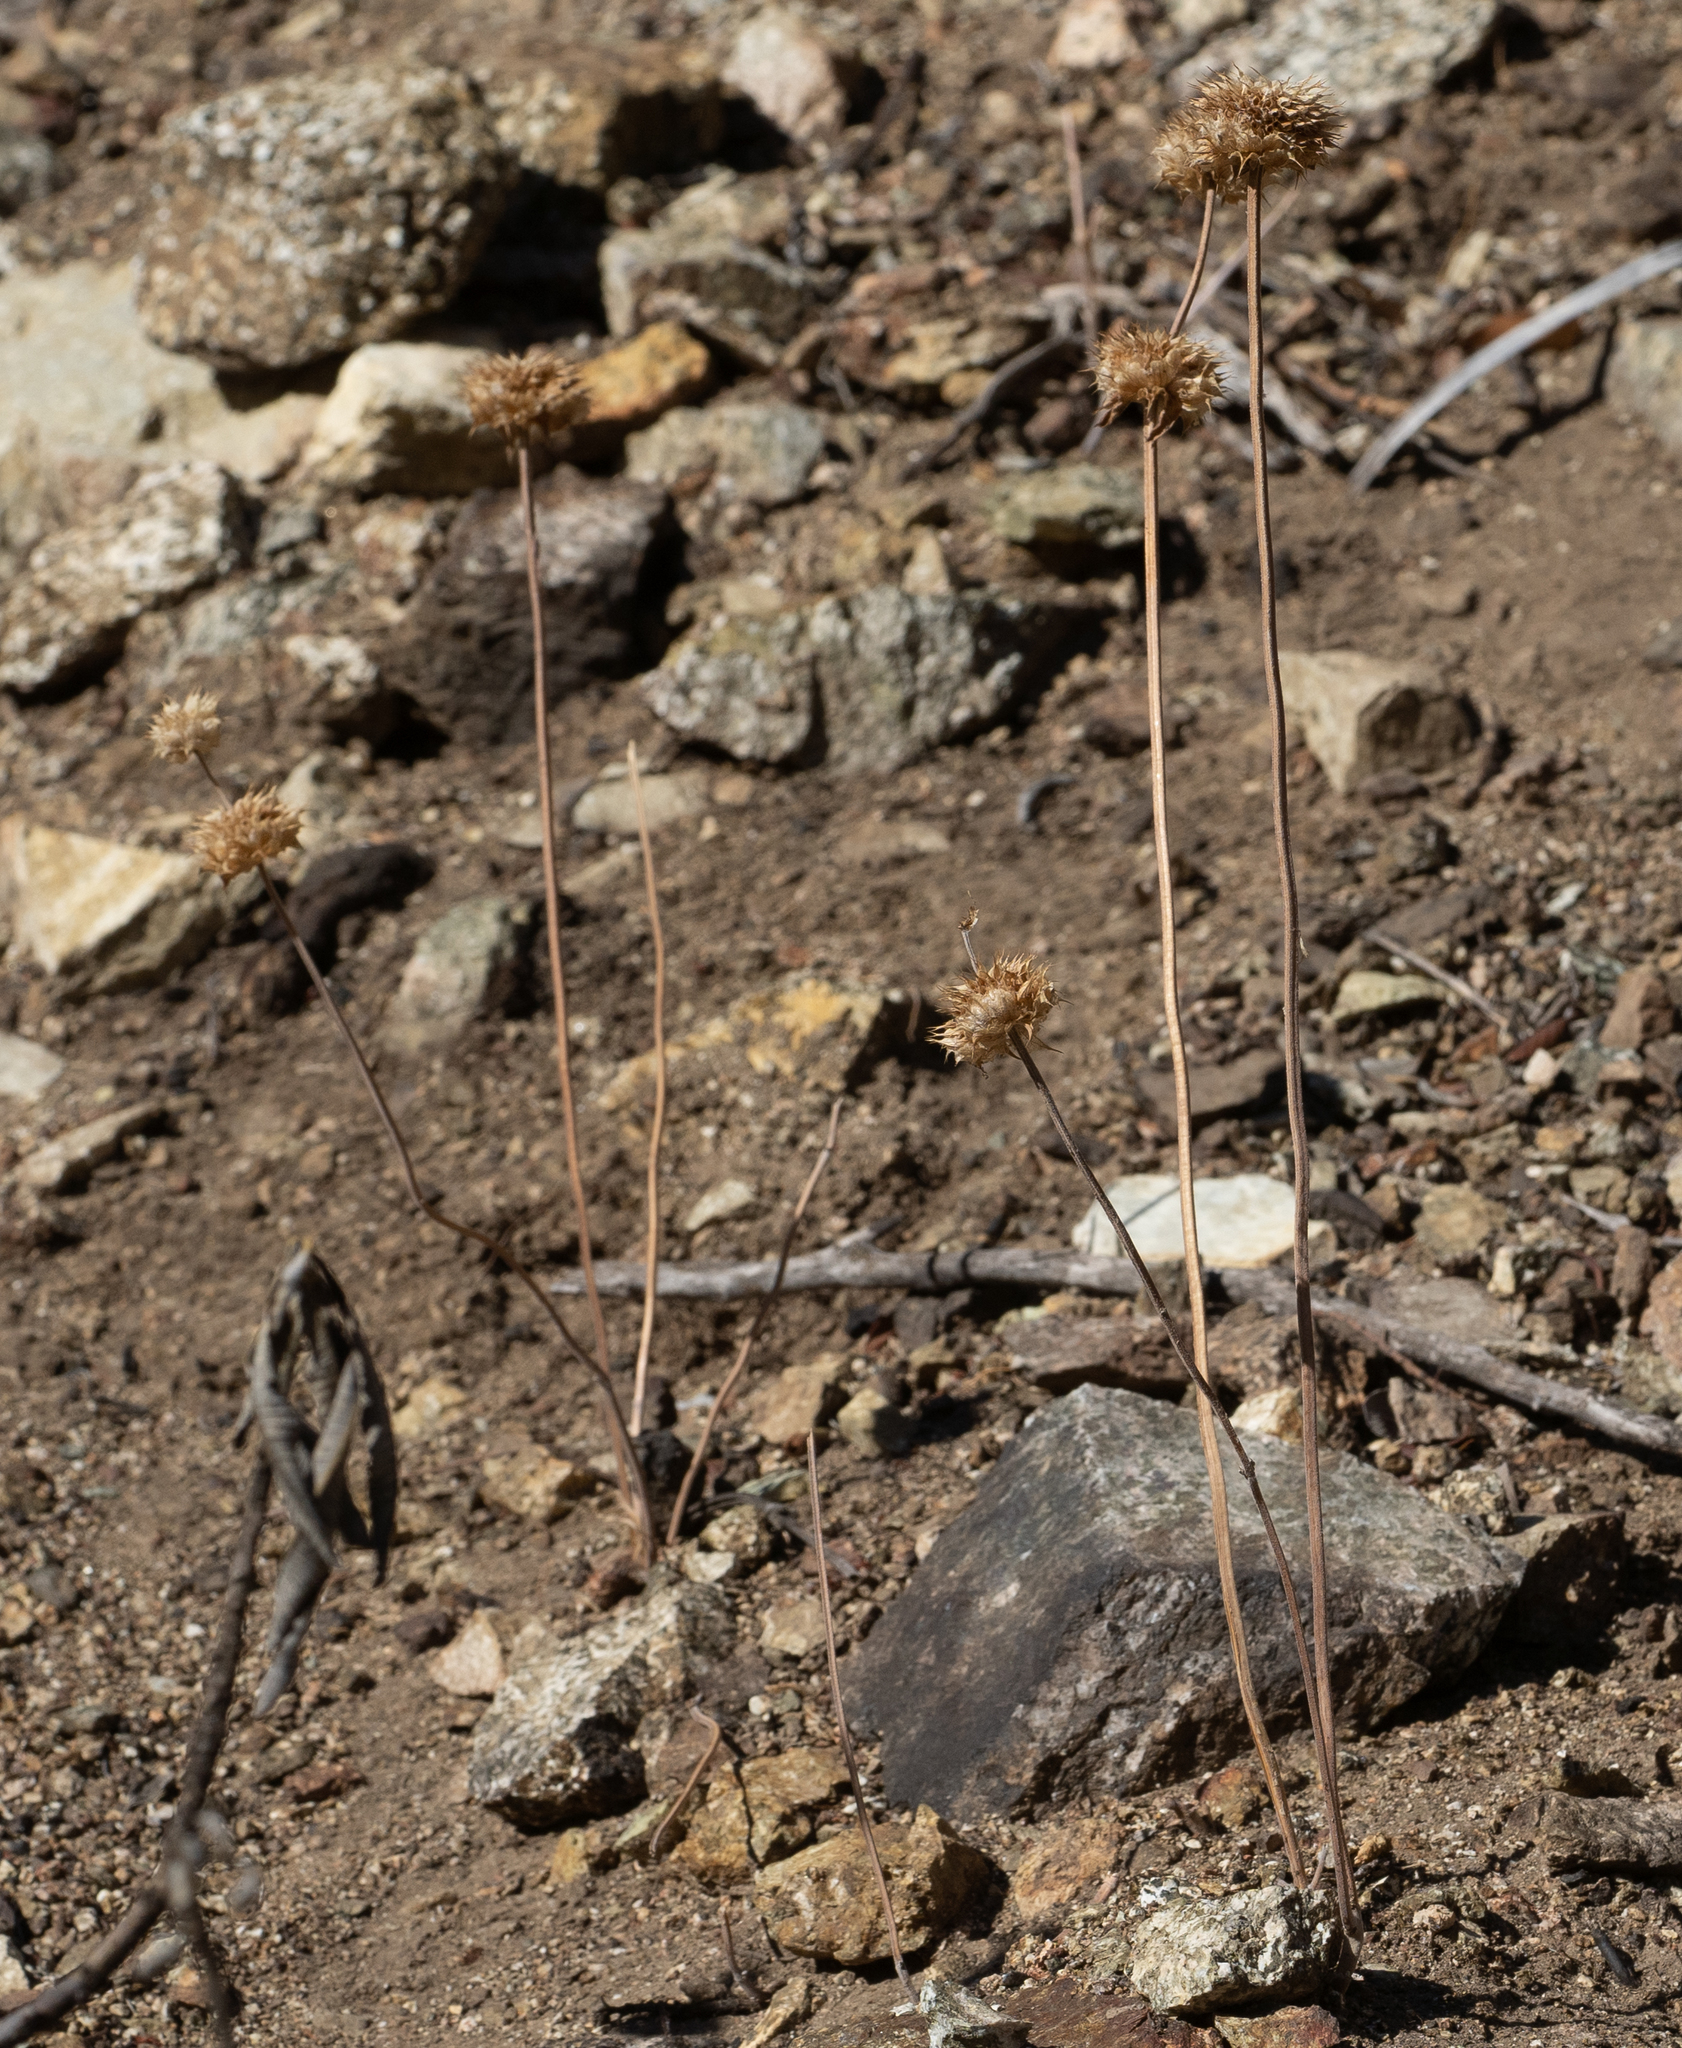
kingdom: Plantae
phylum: Tracheophyta
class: Magnoliopsida
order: Lamiales
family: Lamiaceae
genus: Salvia
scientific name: Salvia columbariae
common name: Chia
